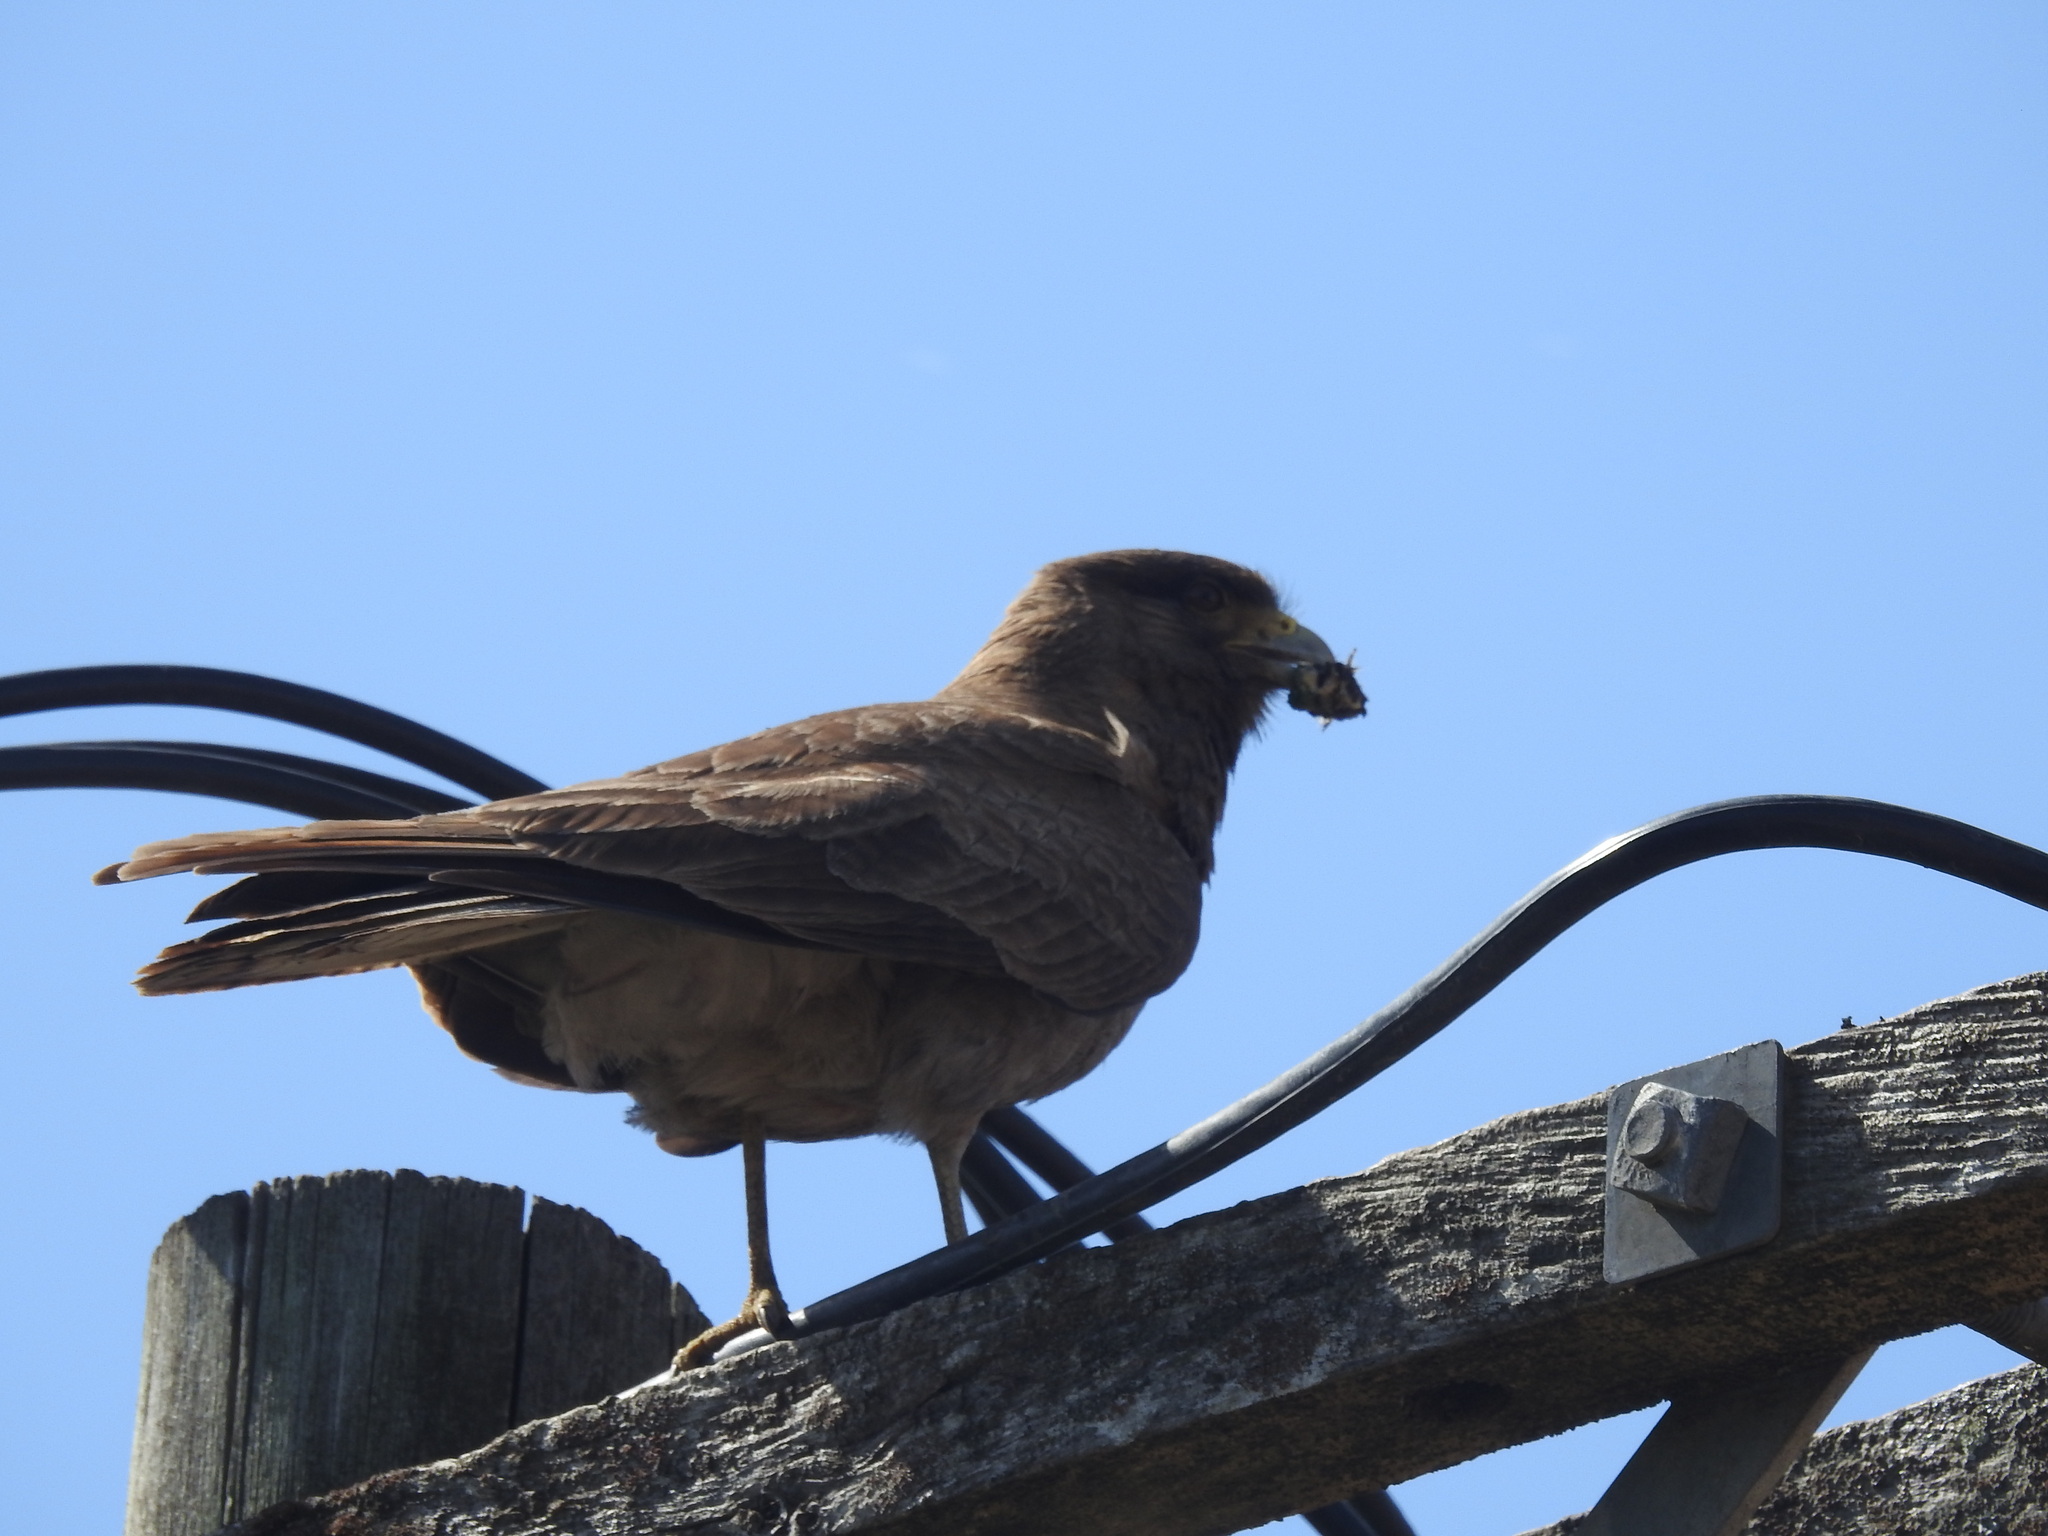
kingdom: Animalia
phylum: Chordata
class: Aves
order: Falconiformes
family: Falconidae
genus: Daptrius
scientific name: Daptrius
